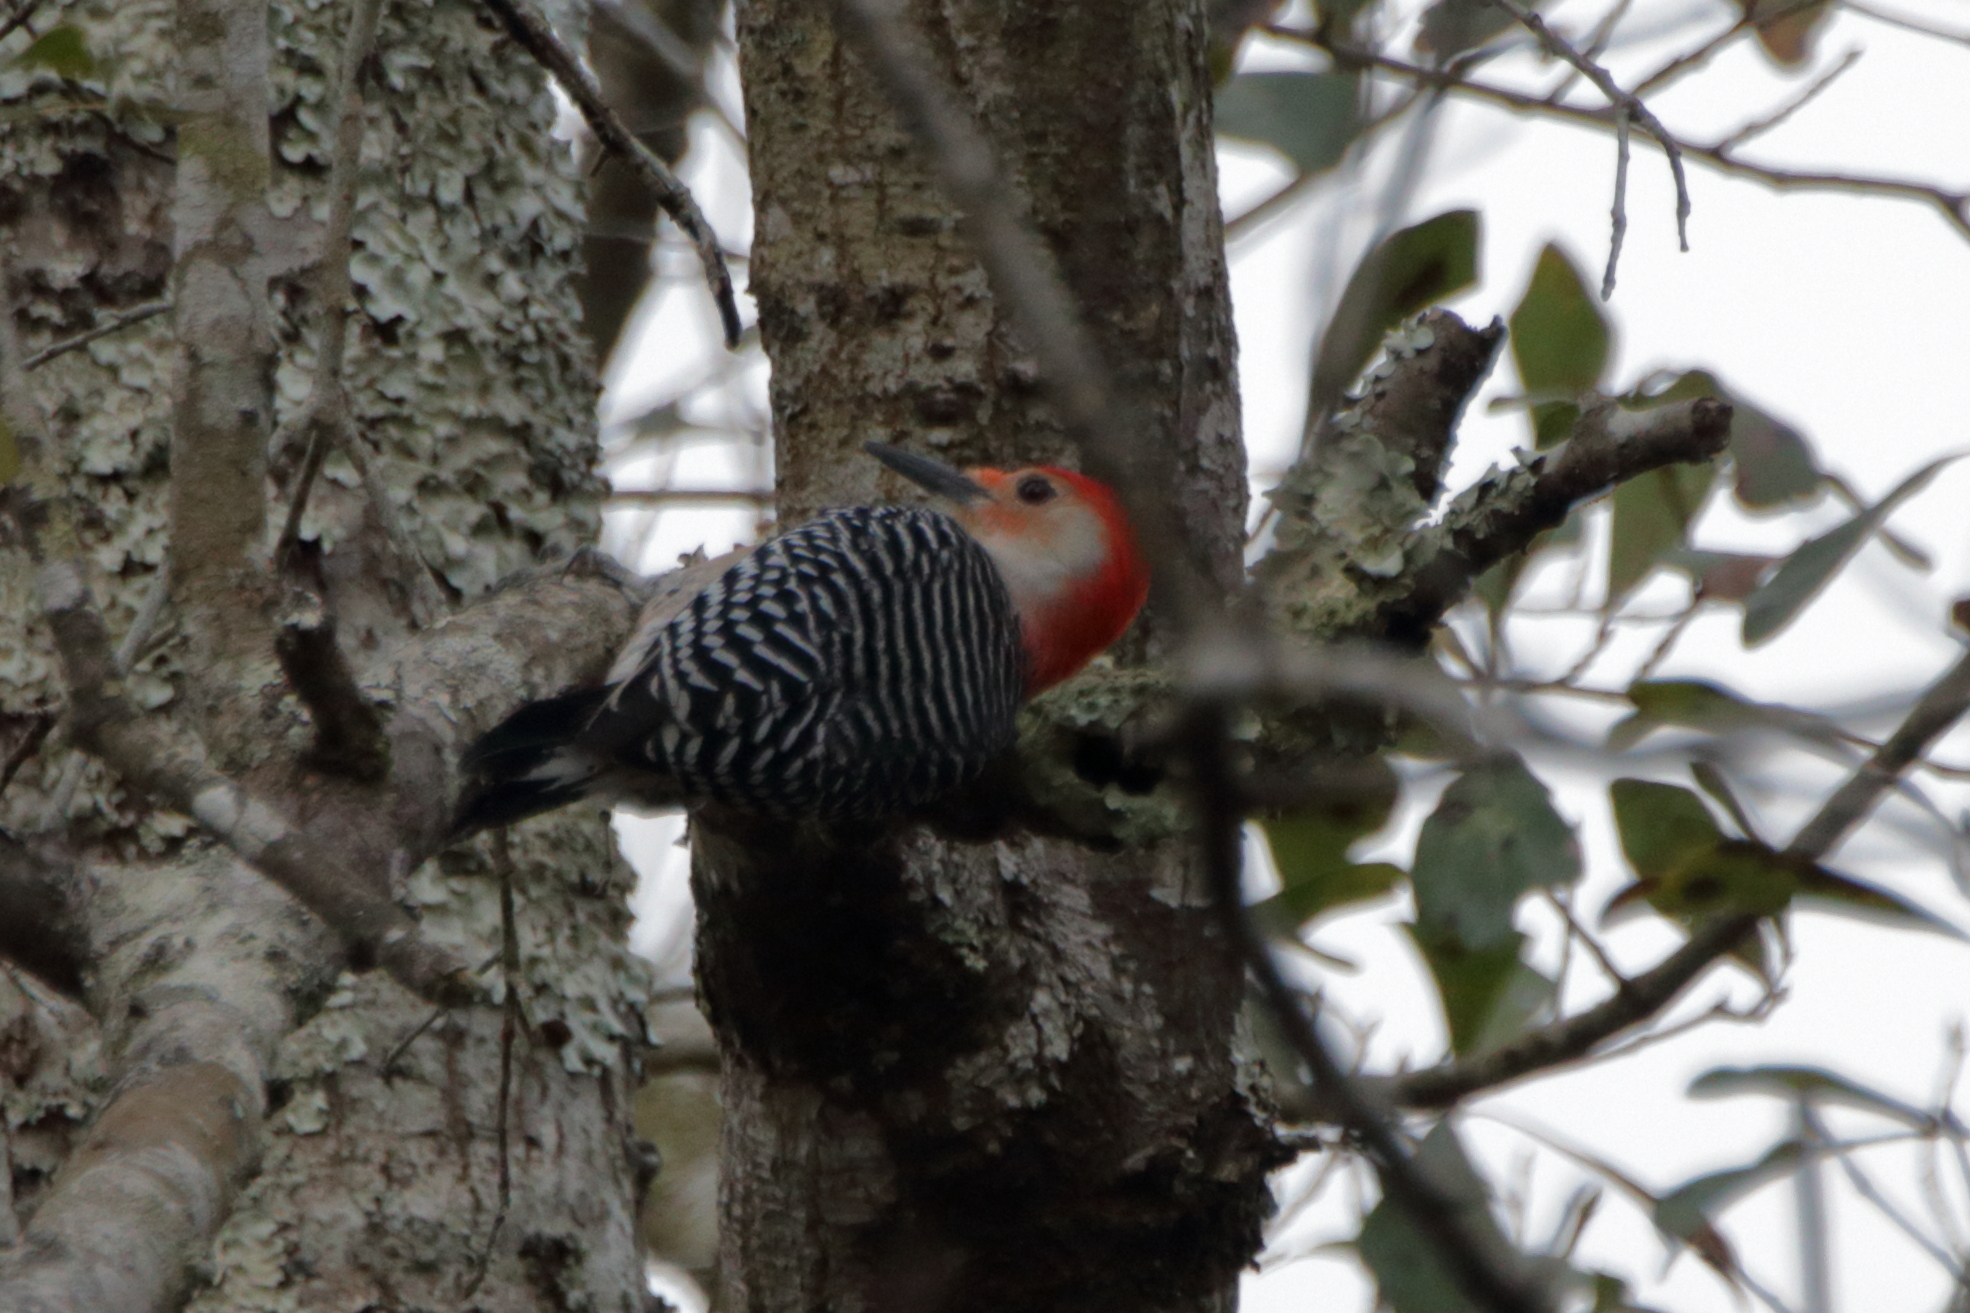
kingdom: Animalia
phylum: Chordata
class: Aves
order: Piciformes
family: Picidae
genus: Melanerpes
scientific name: Melanerpes carolinus
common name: Red-bellied woodpecker
